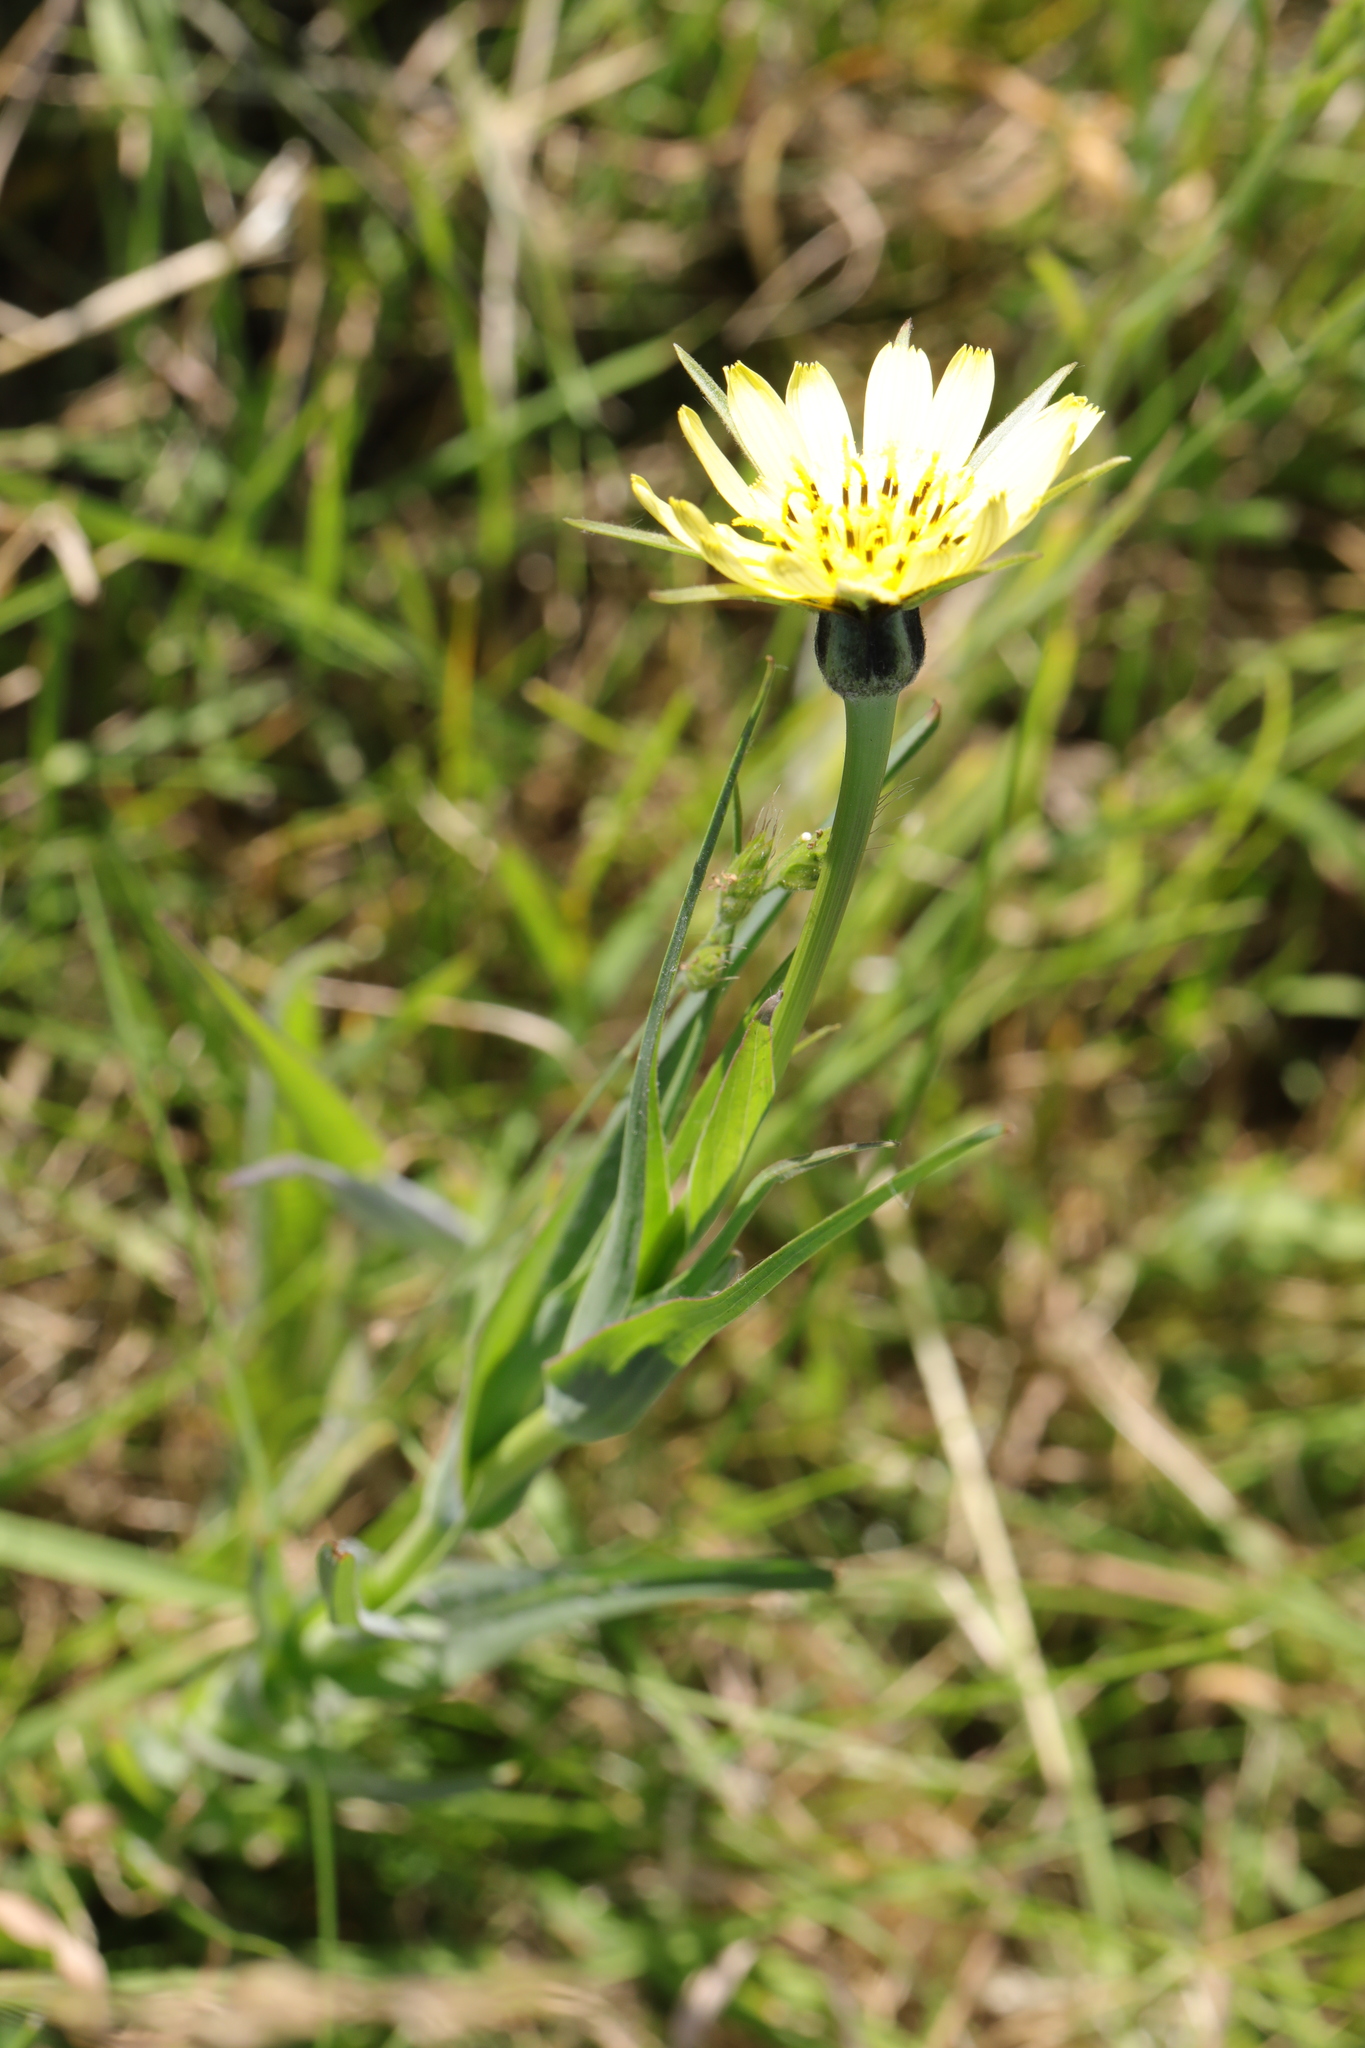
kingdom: Plantae
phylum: Tracheophyta
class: Magnoliopsida
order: Asterales
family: Asteraceae
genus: Tragopogon
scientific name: Tragopogon pratensis
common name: Goat's-beard
